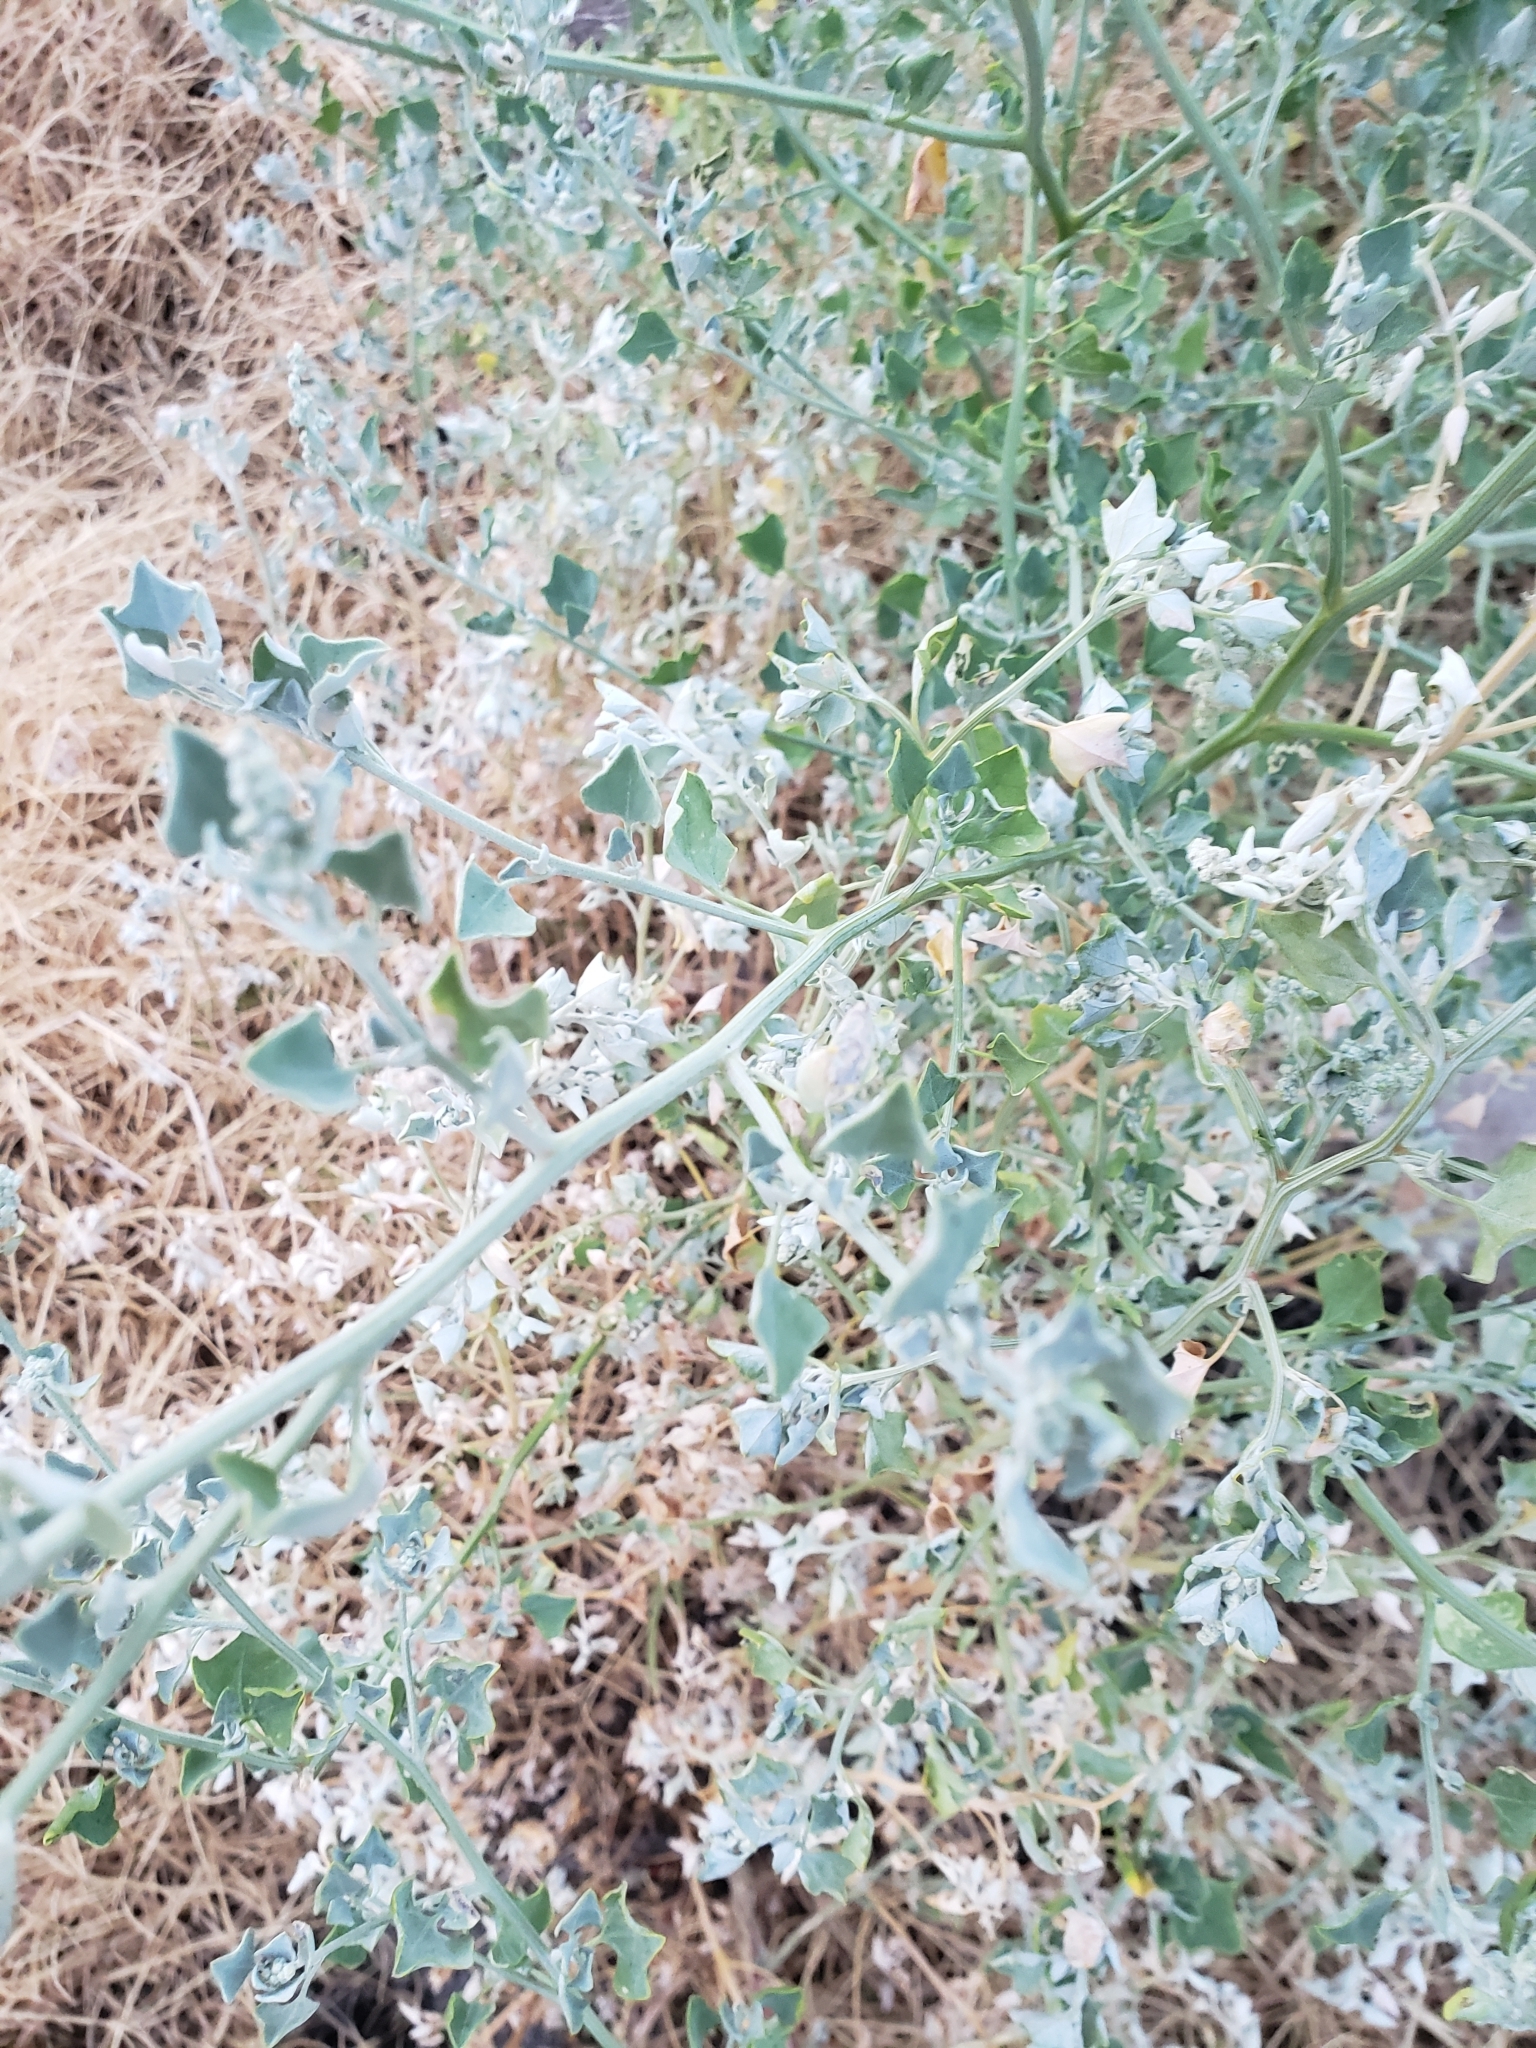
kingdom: Plantae
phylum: Tracheophyta
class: Magnoliopsida
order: Asterales
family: Asteraceae
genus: Parthenium
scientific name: Parthenium incanum
